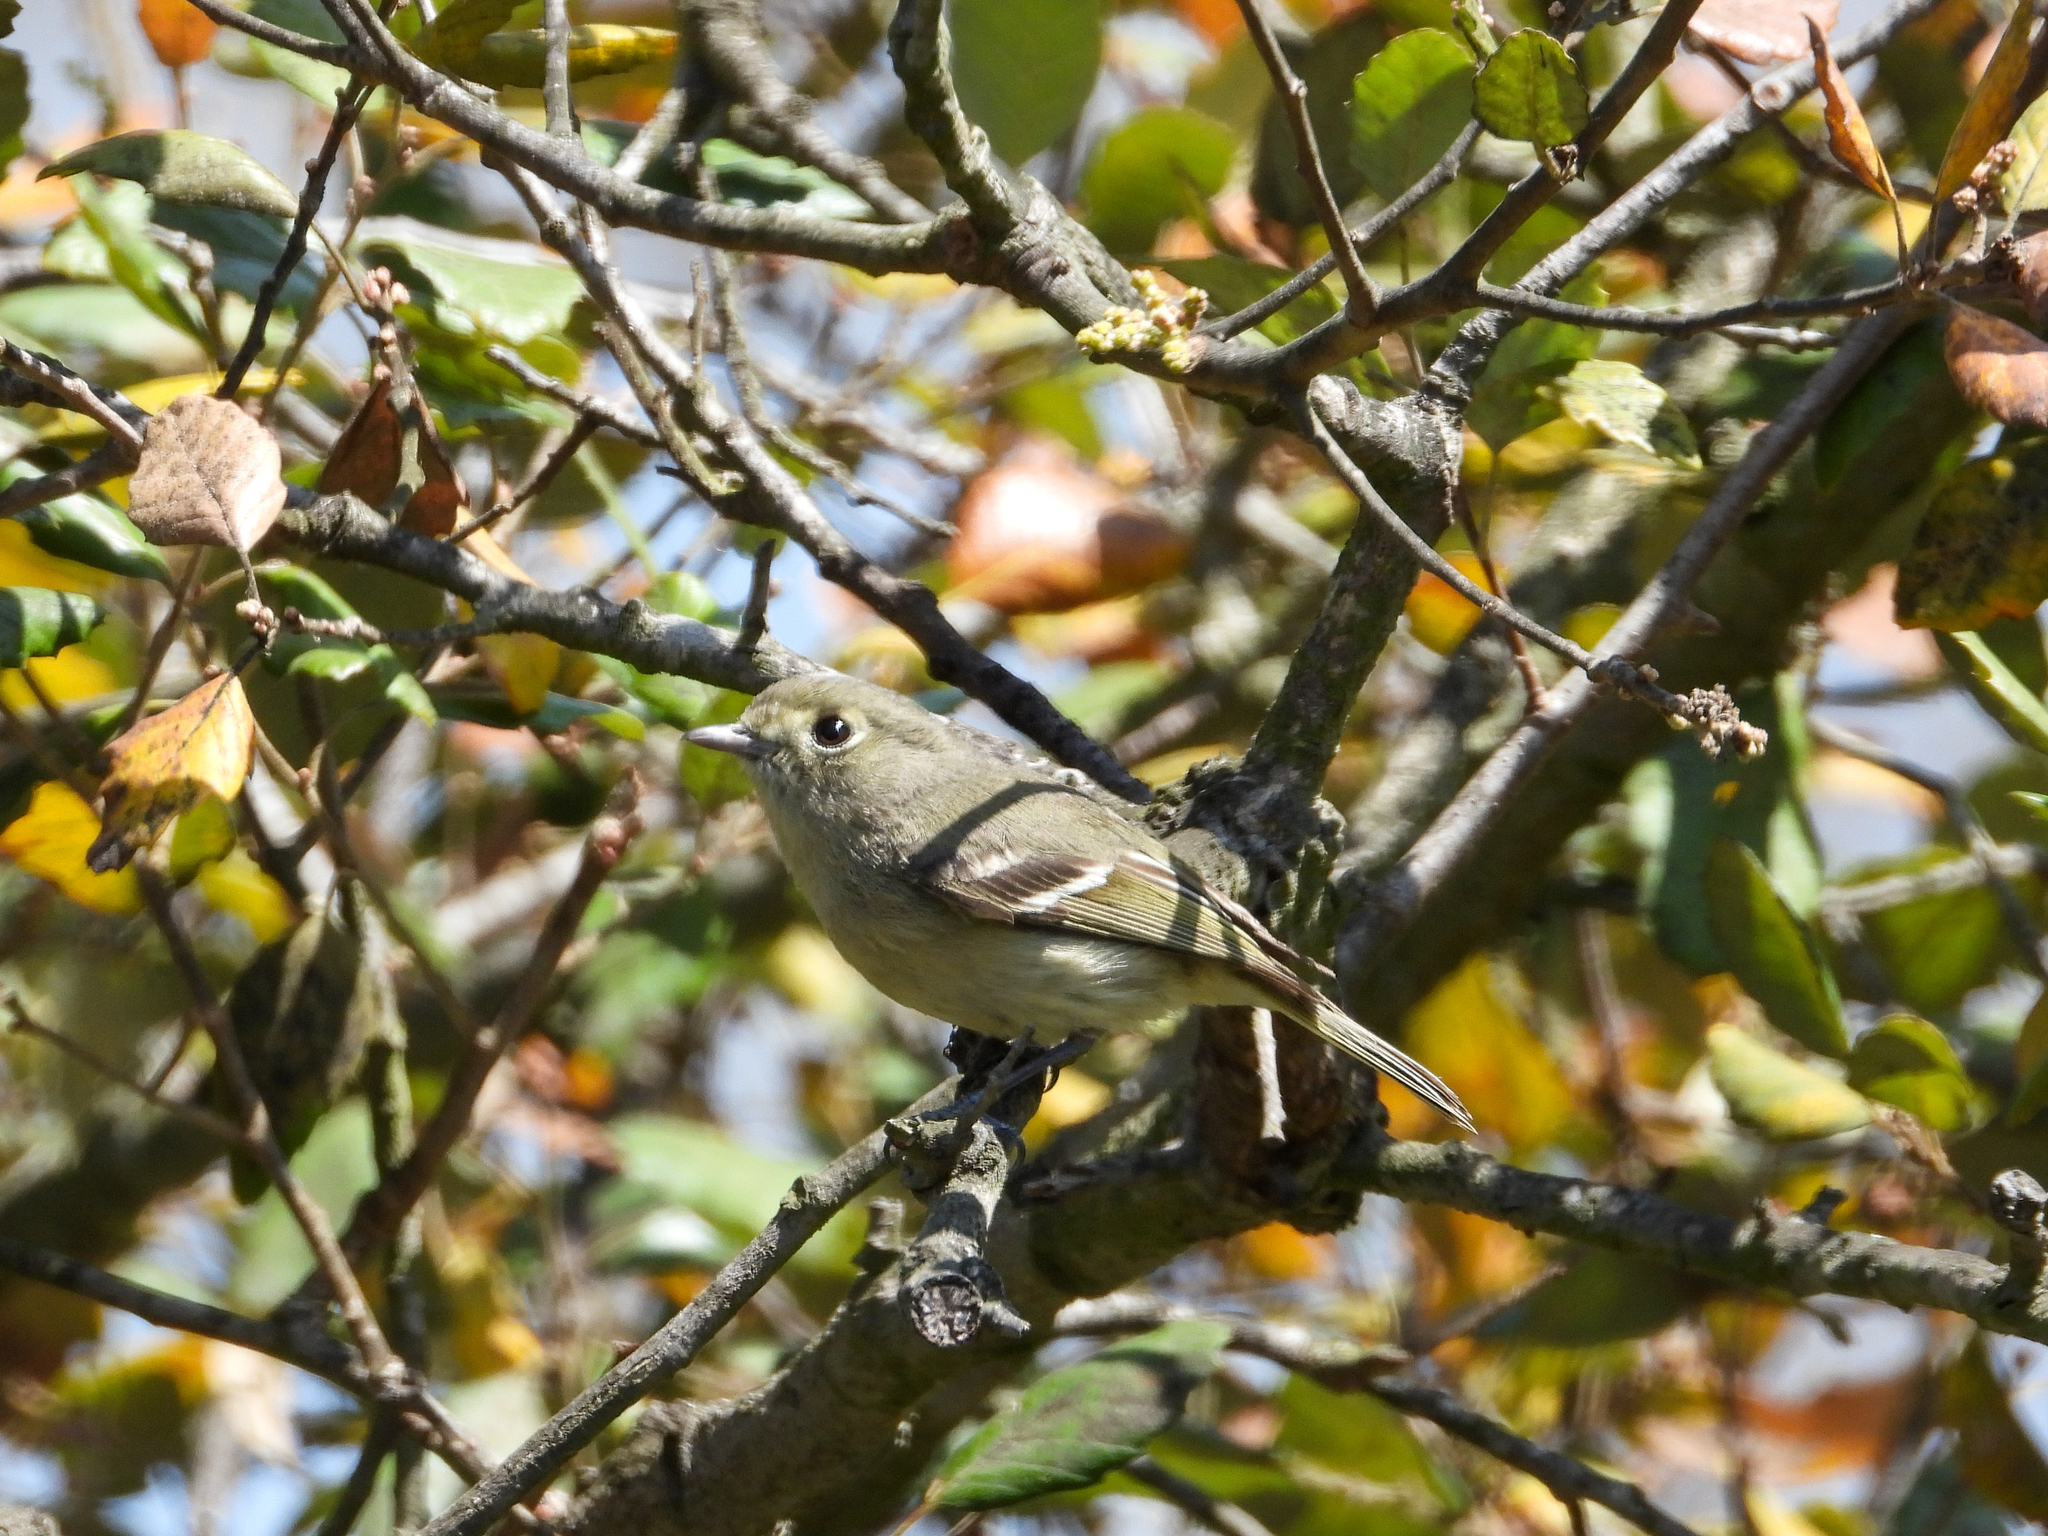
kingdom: Animalia
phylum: Chordata
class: Aves
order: Passeriformes
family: Vireonidae
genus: Vireo
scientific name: Vireo huttoni
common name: Hutton's vireo
